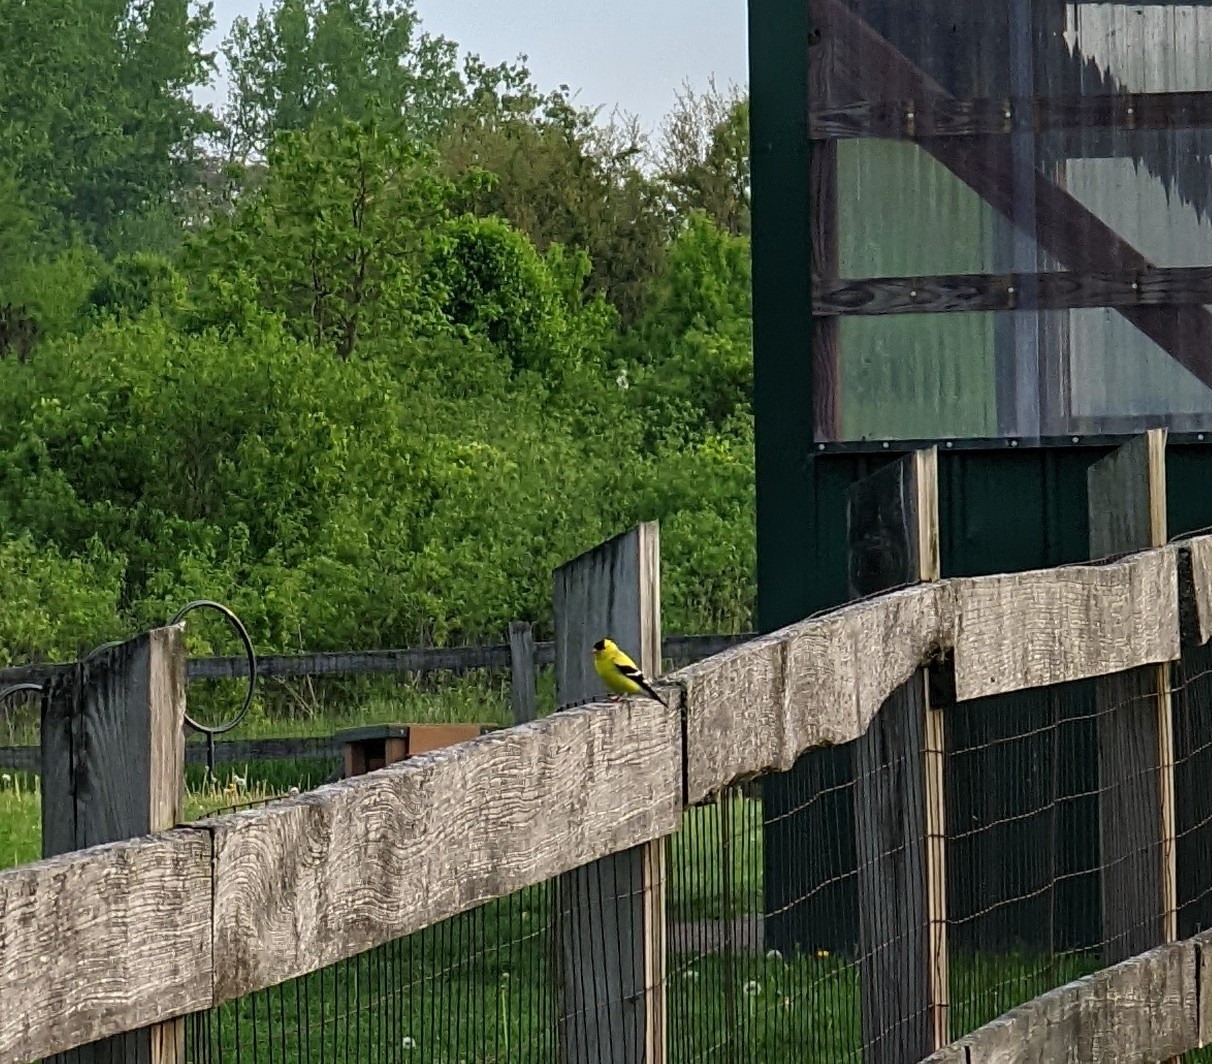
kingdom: Animalia
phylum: Chordata
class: Aves
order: Passeriformes
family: Fringillidae
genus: Spinus
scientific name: Spinus tristis
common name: American goldfinch
